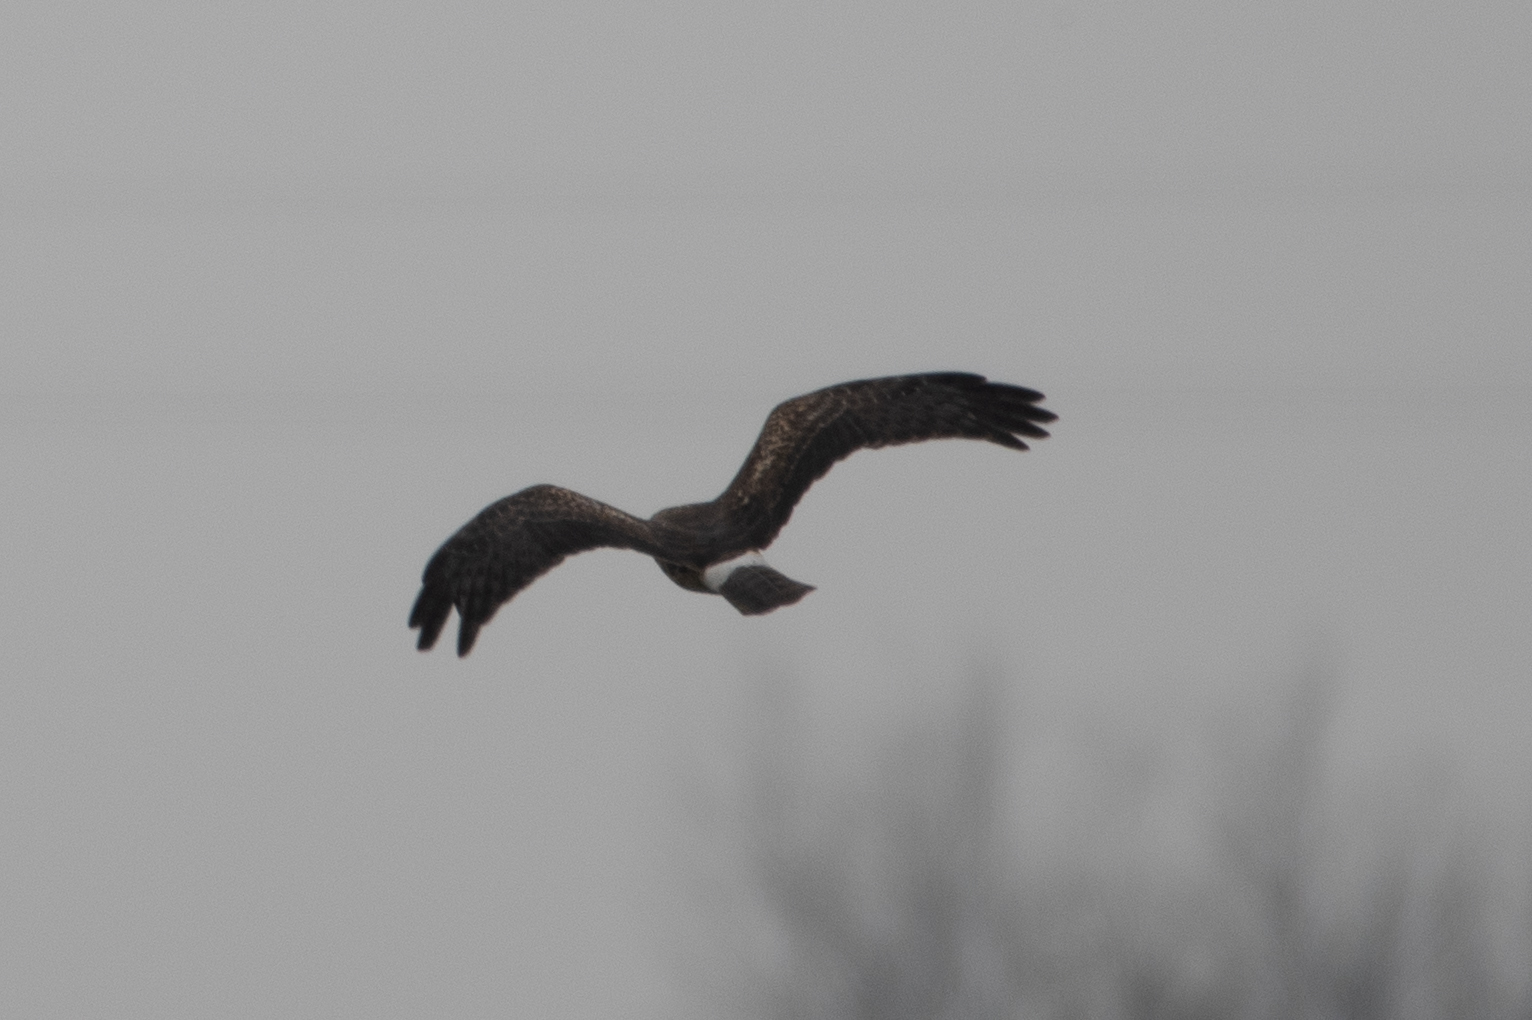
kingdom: Animalia
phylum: Chordata
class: Aves
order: Accipitriformes
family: Accipitridae
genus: Circus
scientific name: Circus cyaneus
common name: Hen harrier
